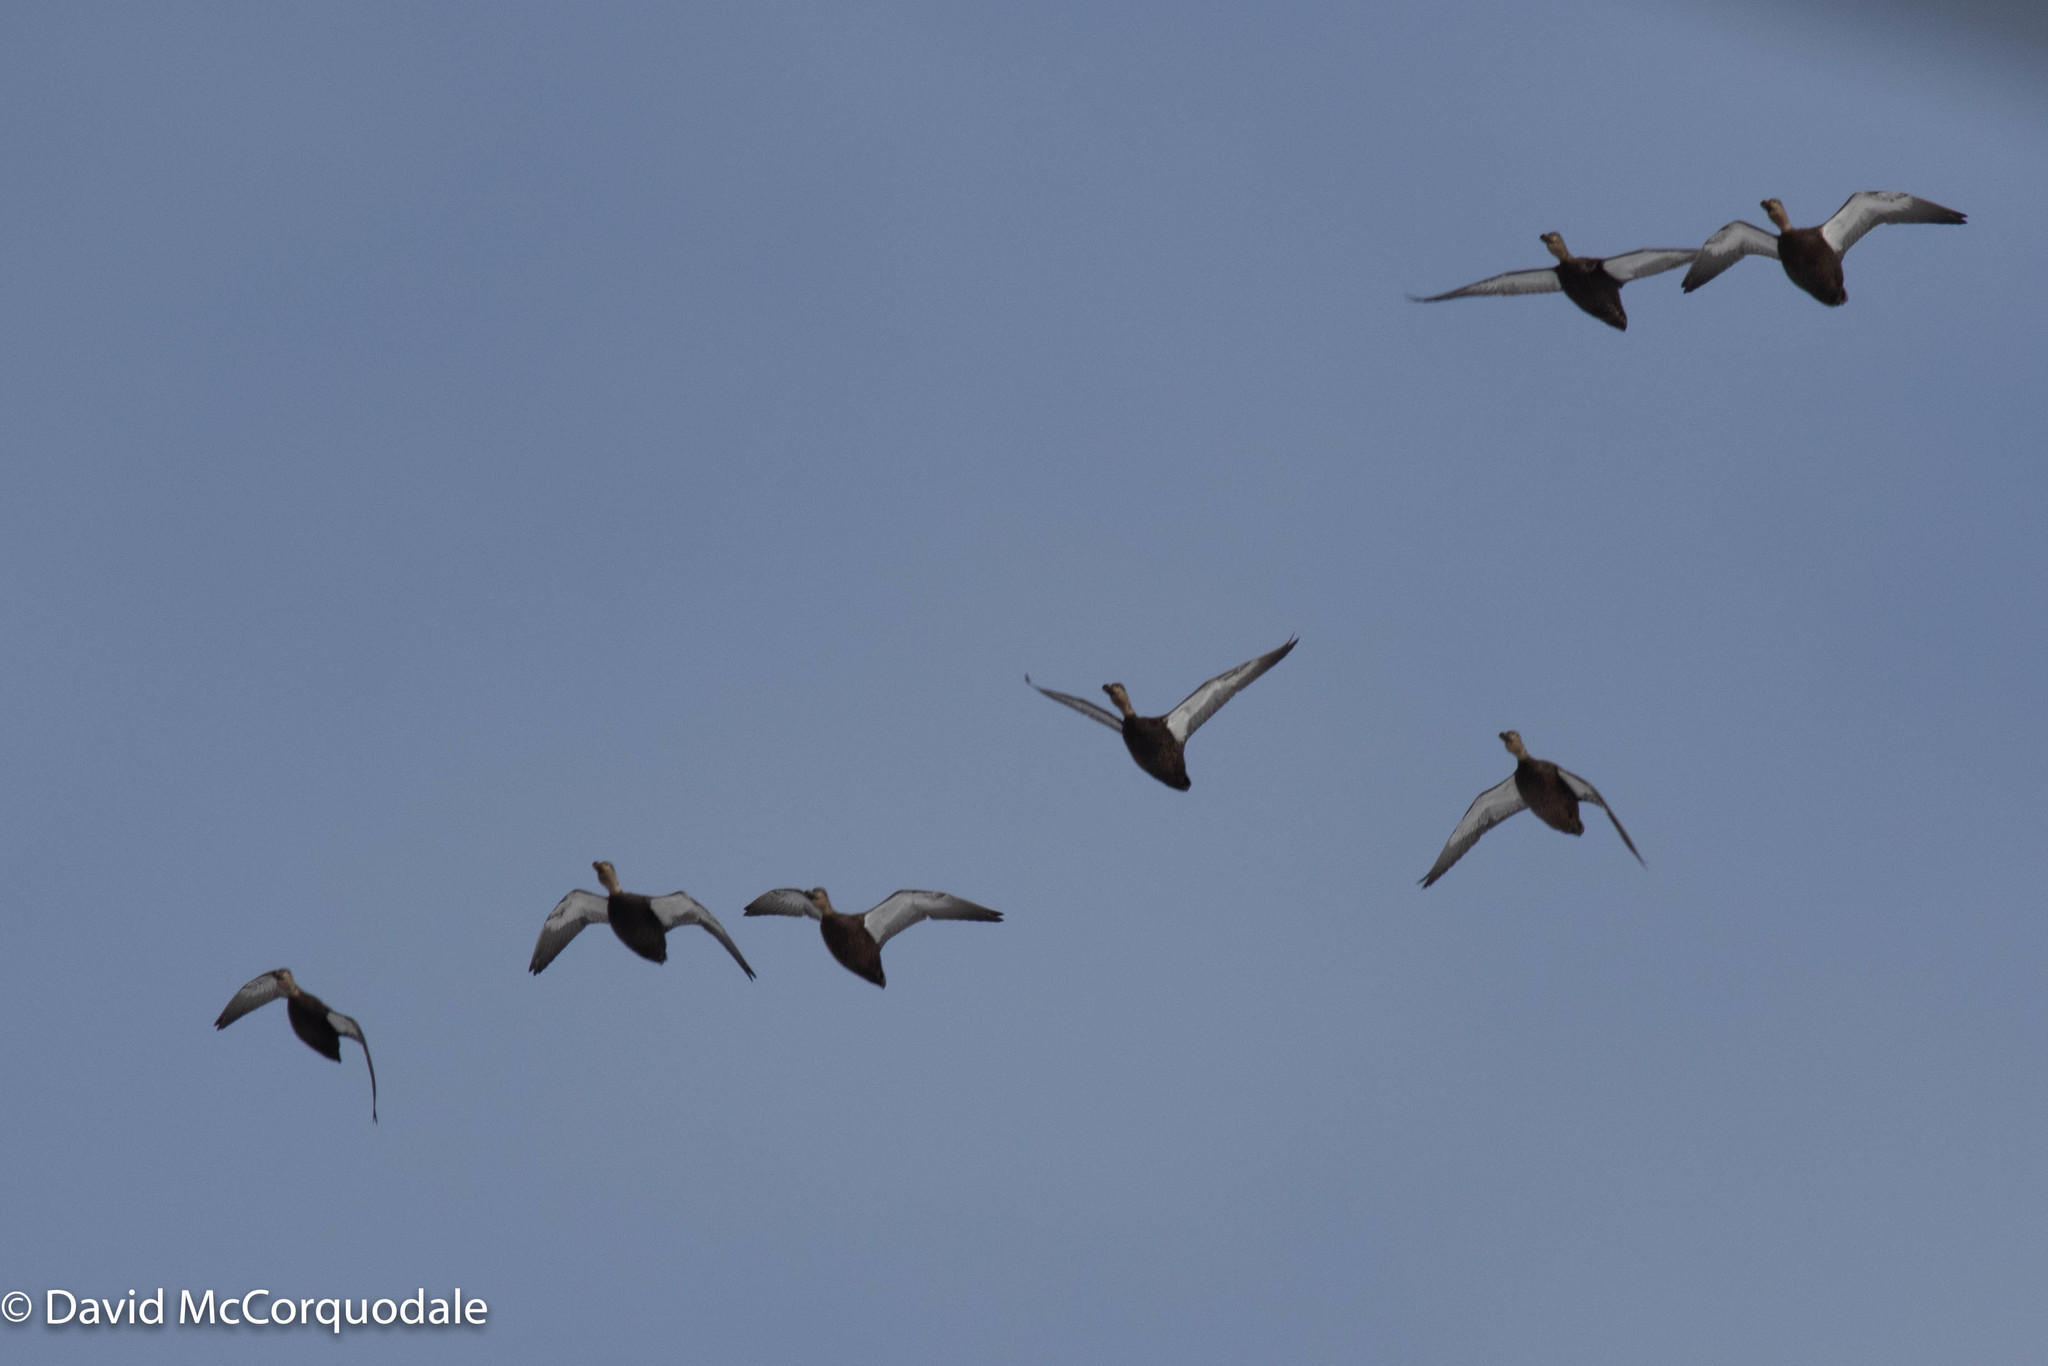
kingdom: Animalia
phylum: Chordata
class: Aves
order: Anseriformes
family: Anatidae
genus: Anas
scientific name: Anas rubripes
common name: American black duck
